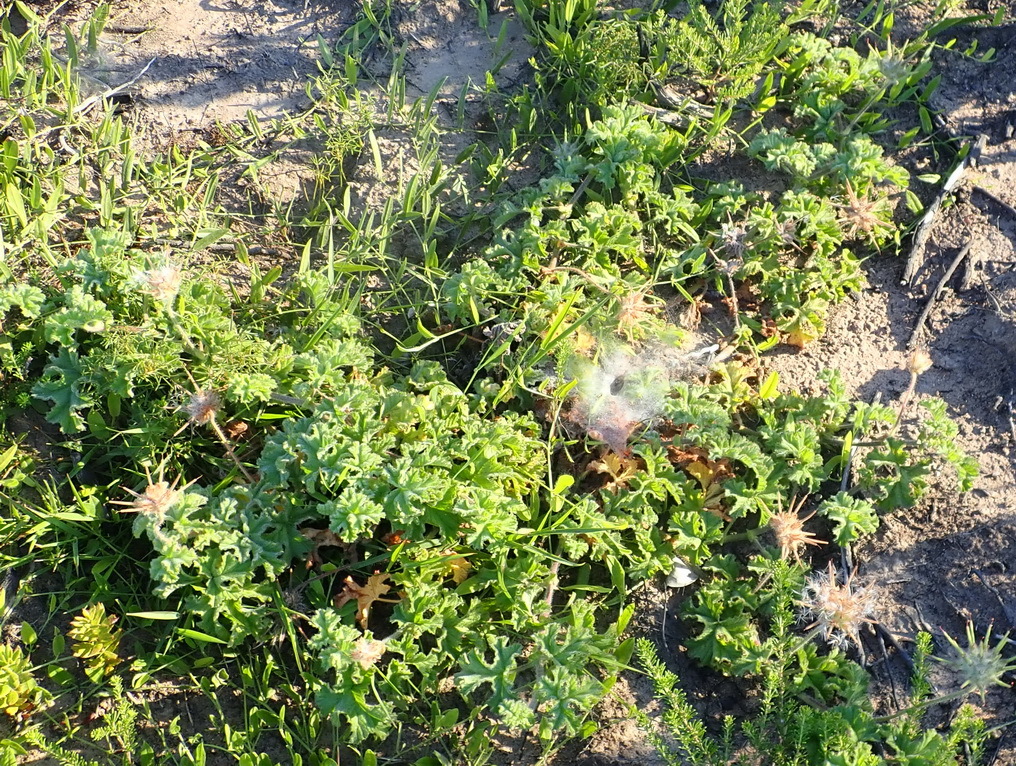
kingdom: Plantae
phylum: Tracheophyta
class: Magnoliopsida
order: Geraniales
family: Geraniaceae
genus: Pelargonium
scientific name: Pelargonium capitatum
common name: Rose scented geranium
